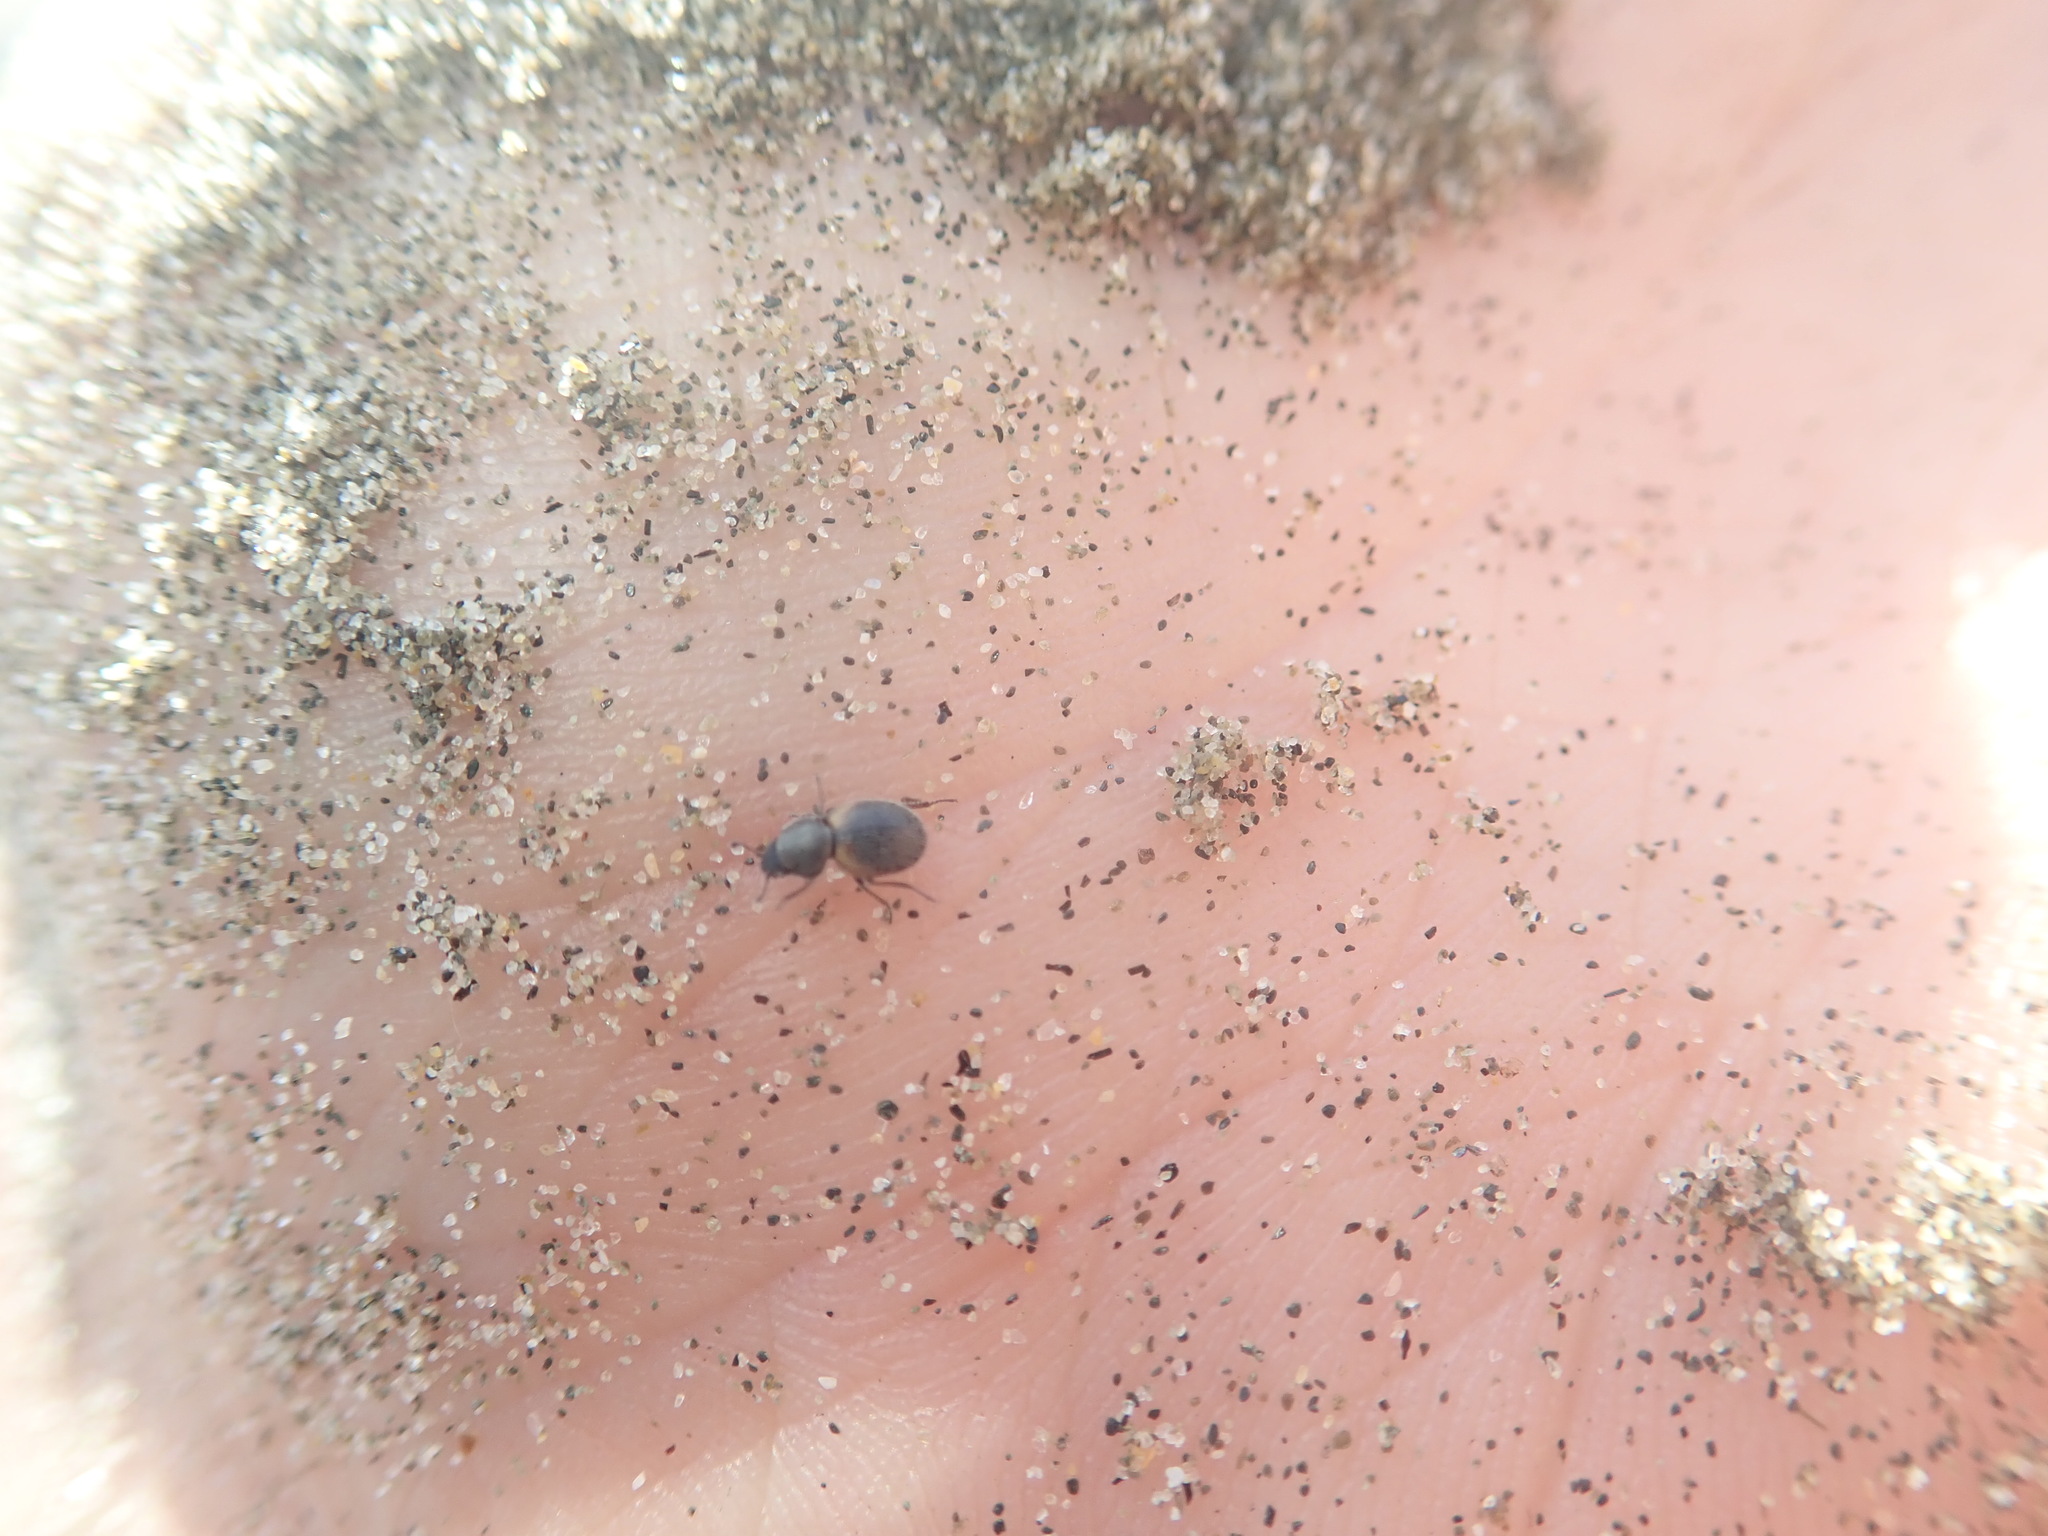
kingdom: Animalia
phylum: Arthropoda
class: Insecta
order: Coleoptera
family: Phycosecidae
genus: Phycosecis
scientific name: Phycosecis
